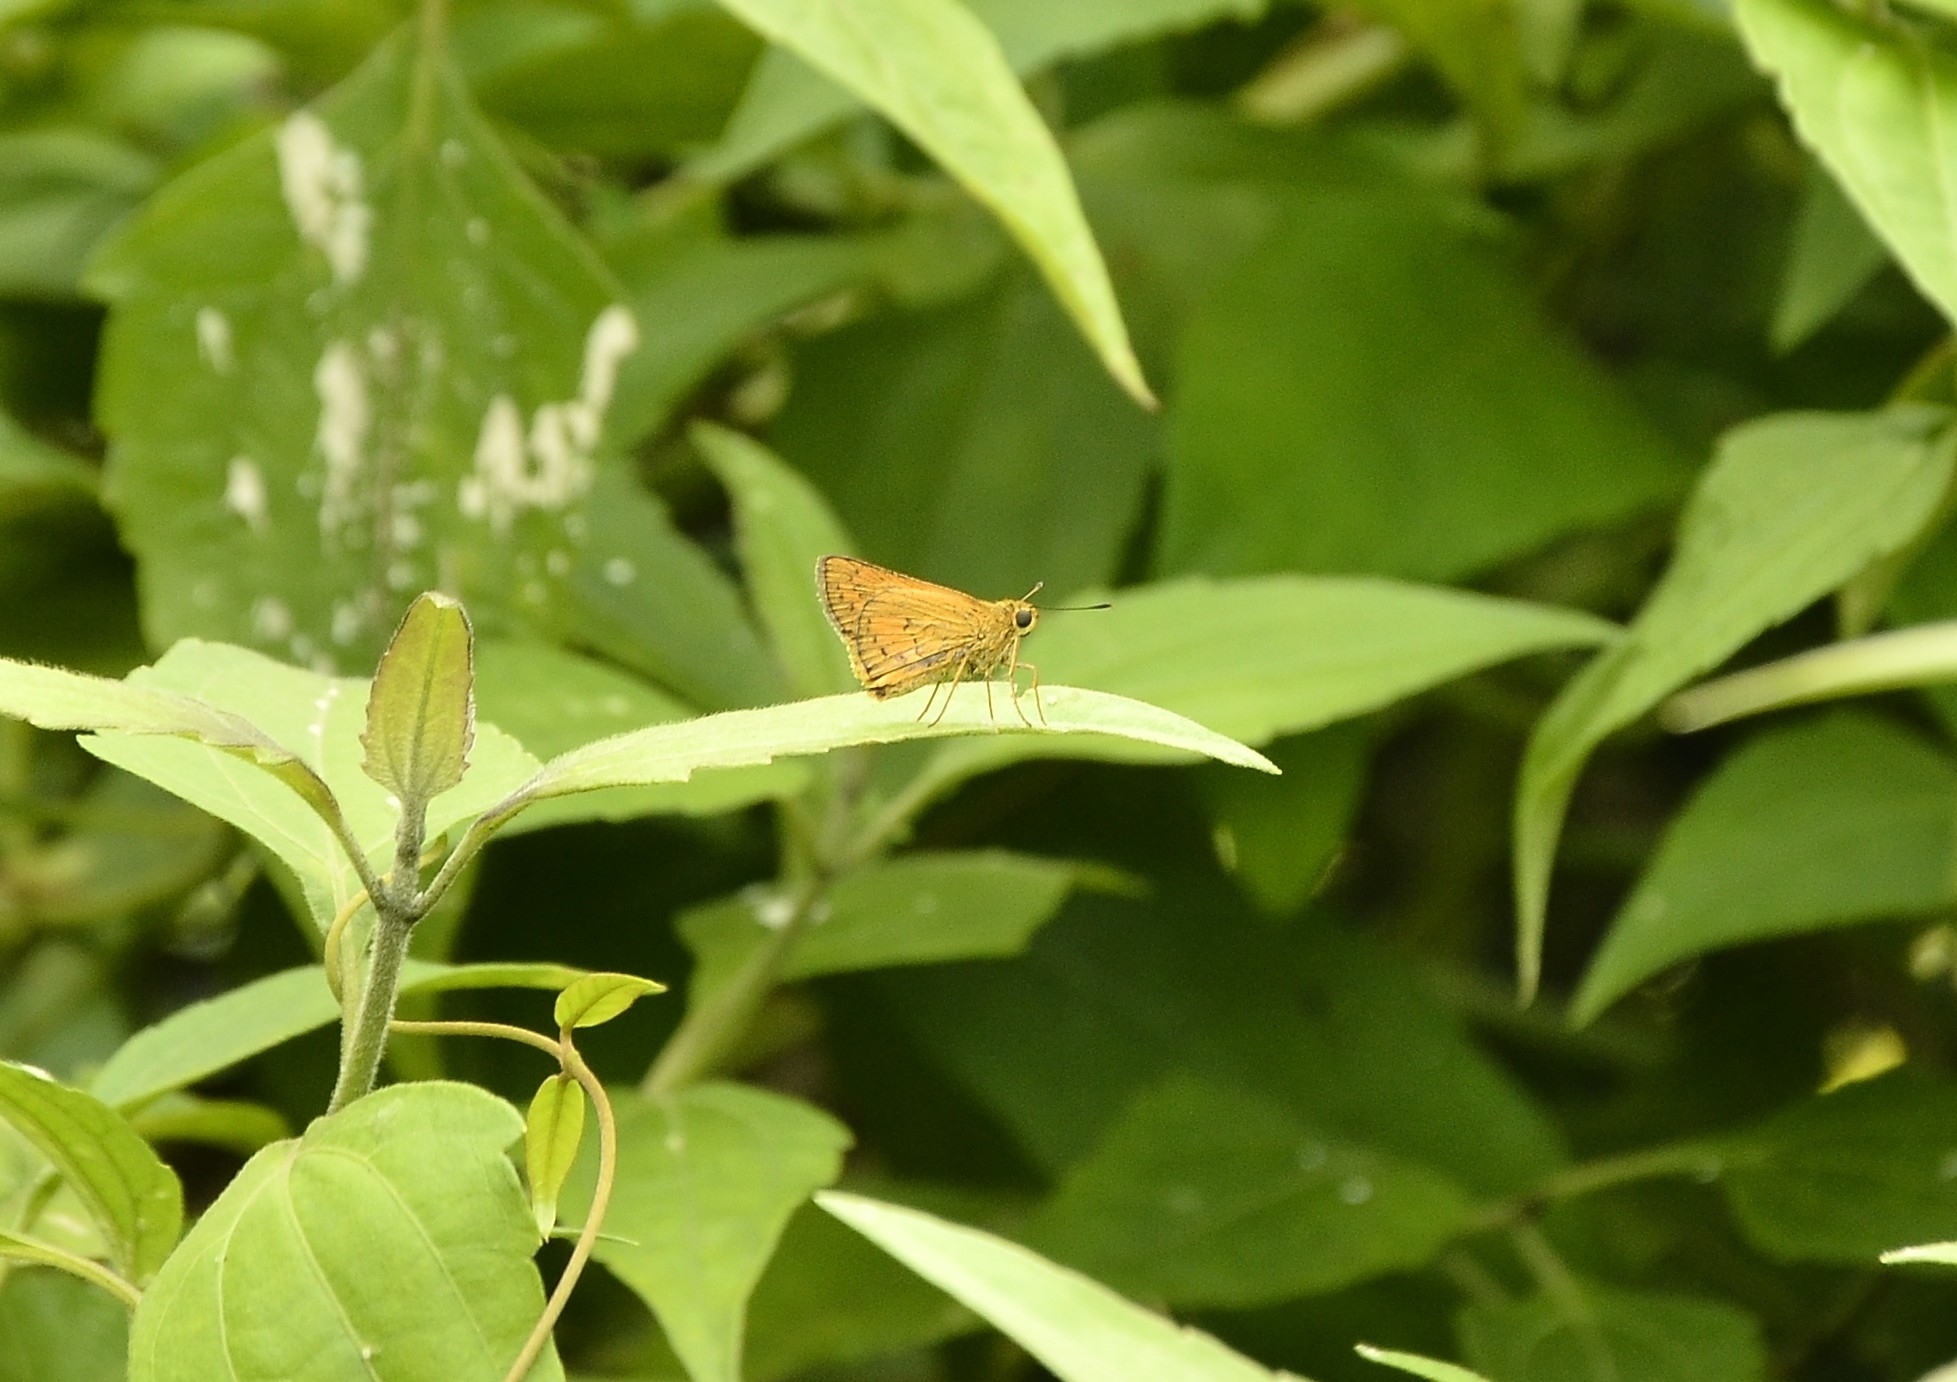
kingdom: Animalia
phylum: Arthropoda
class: Insecta
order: Lepidoptera
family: Hesperiidae
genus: Telicota
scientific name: Telicota bambusae
